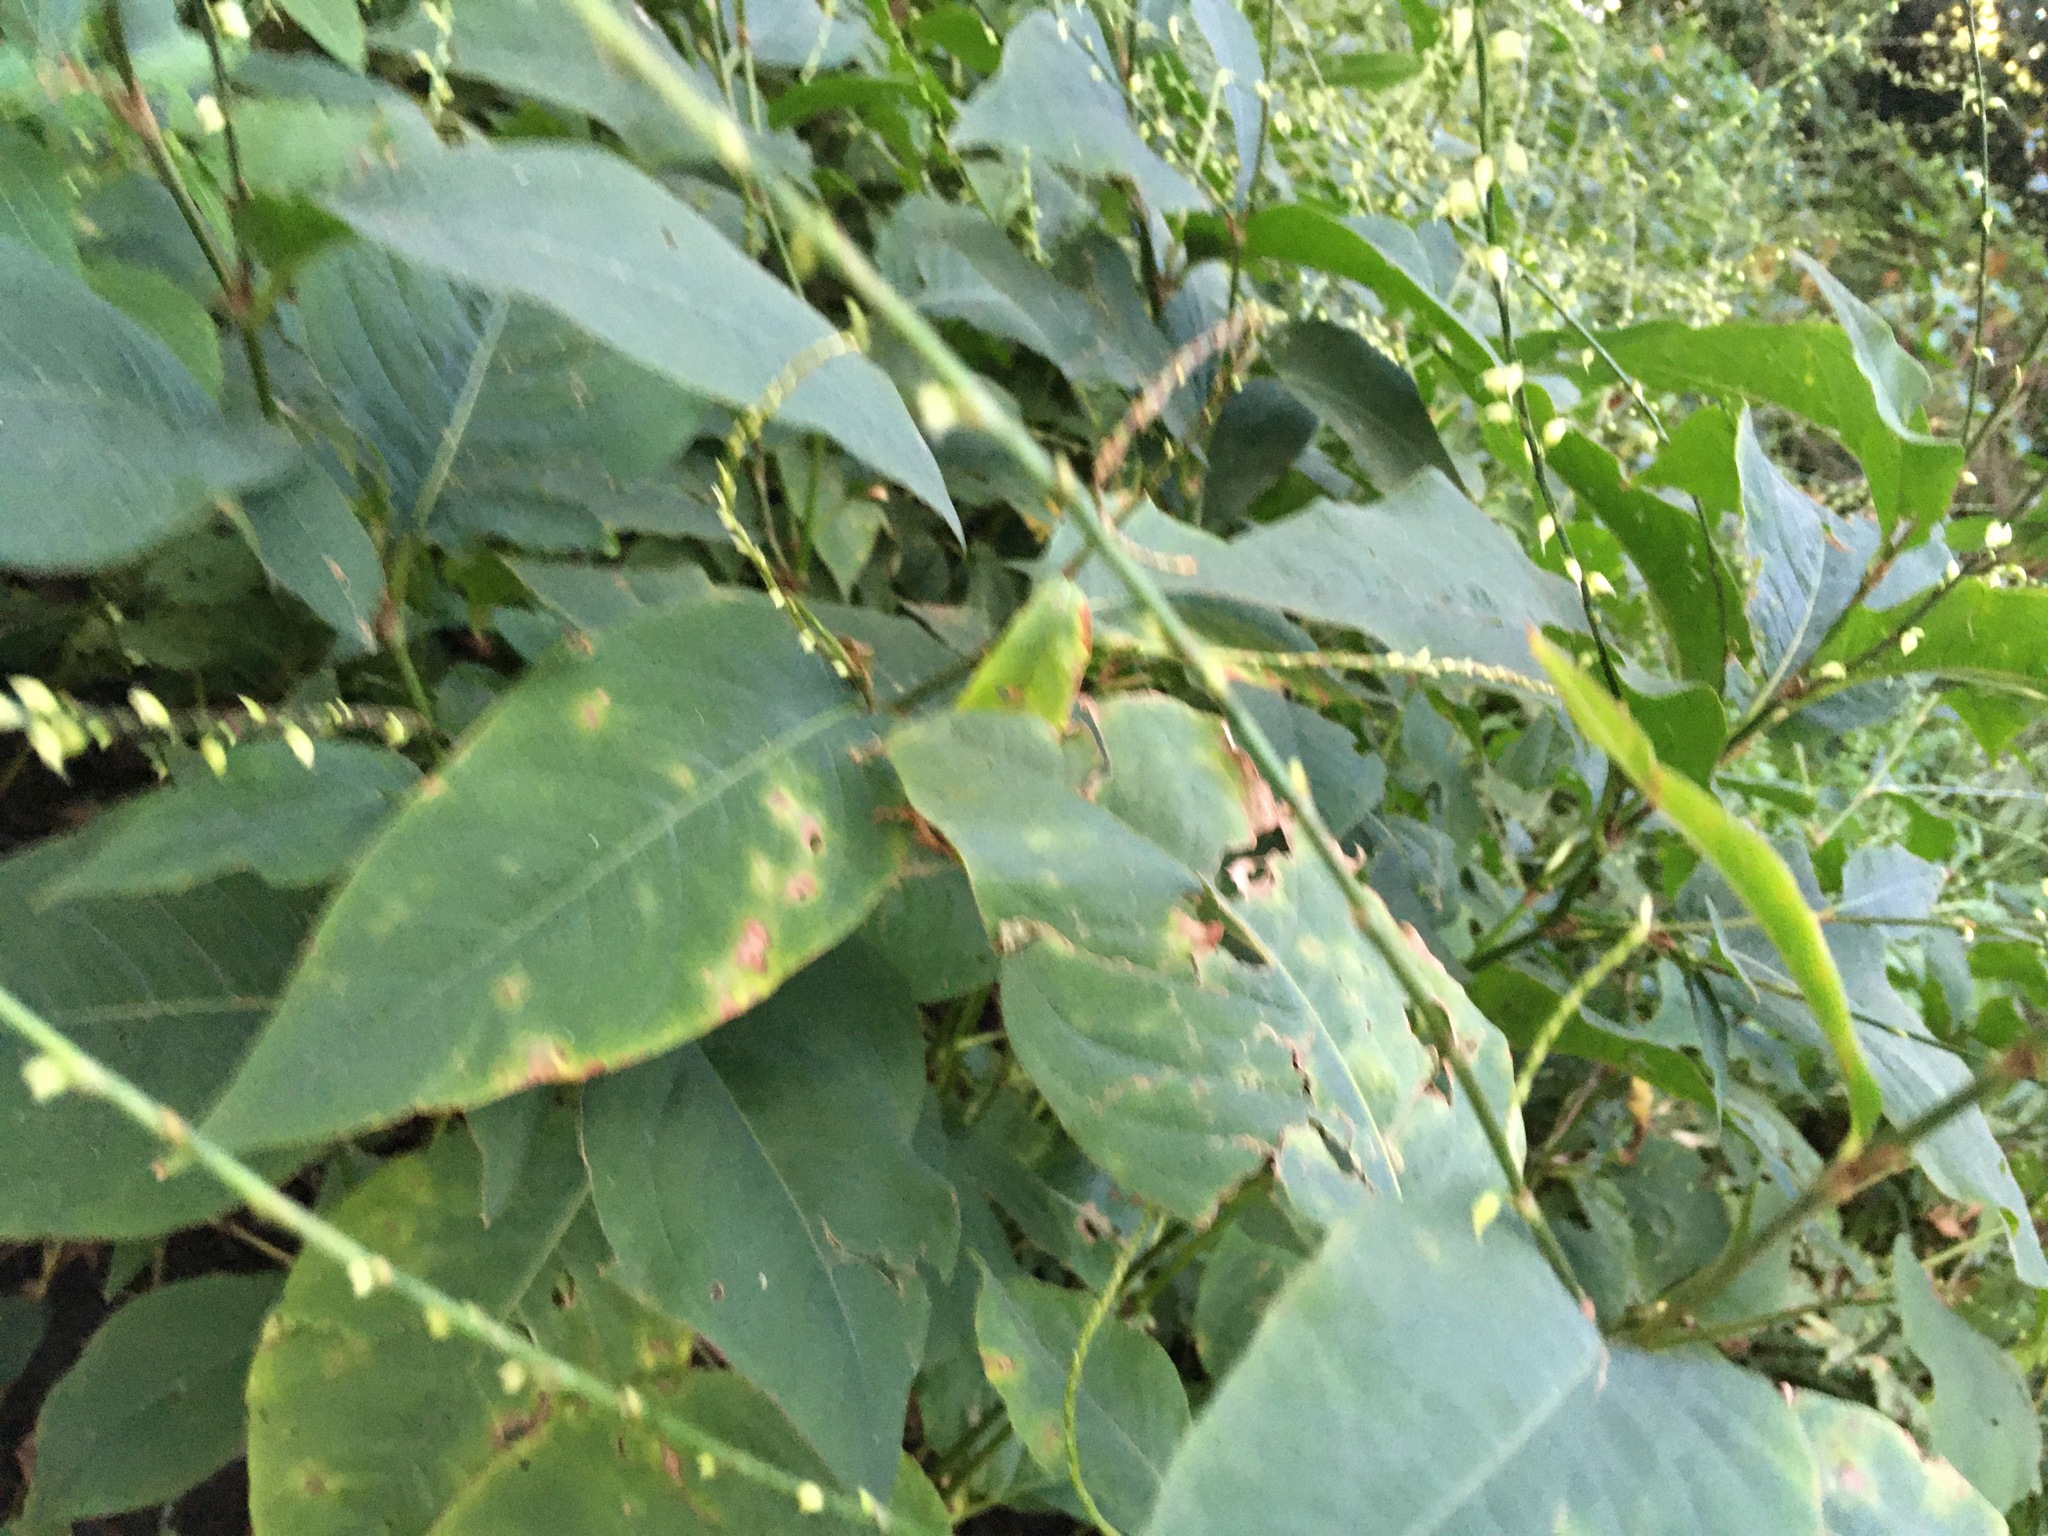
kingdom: Plantae
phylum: Tracheophyta
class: Magnoliopsida
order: Caryophyllales
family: Polygonaceae
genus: Persicaria
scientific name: Persicaria virginiana
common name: Jumpseed
